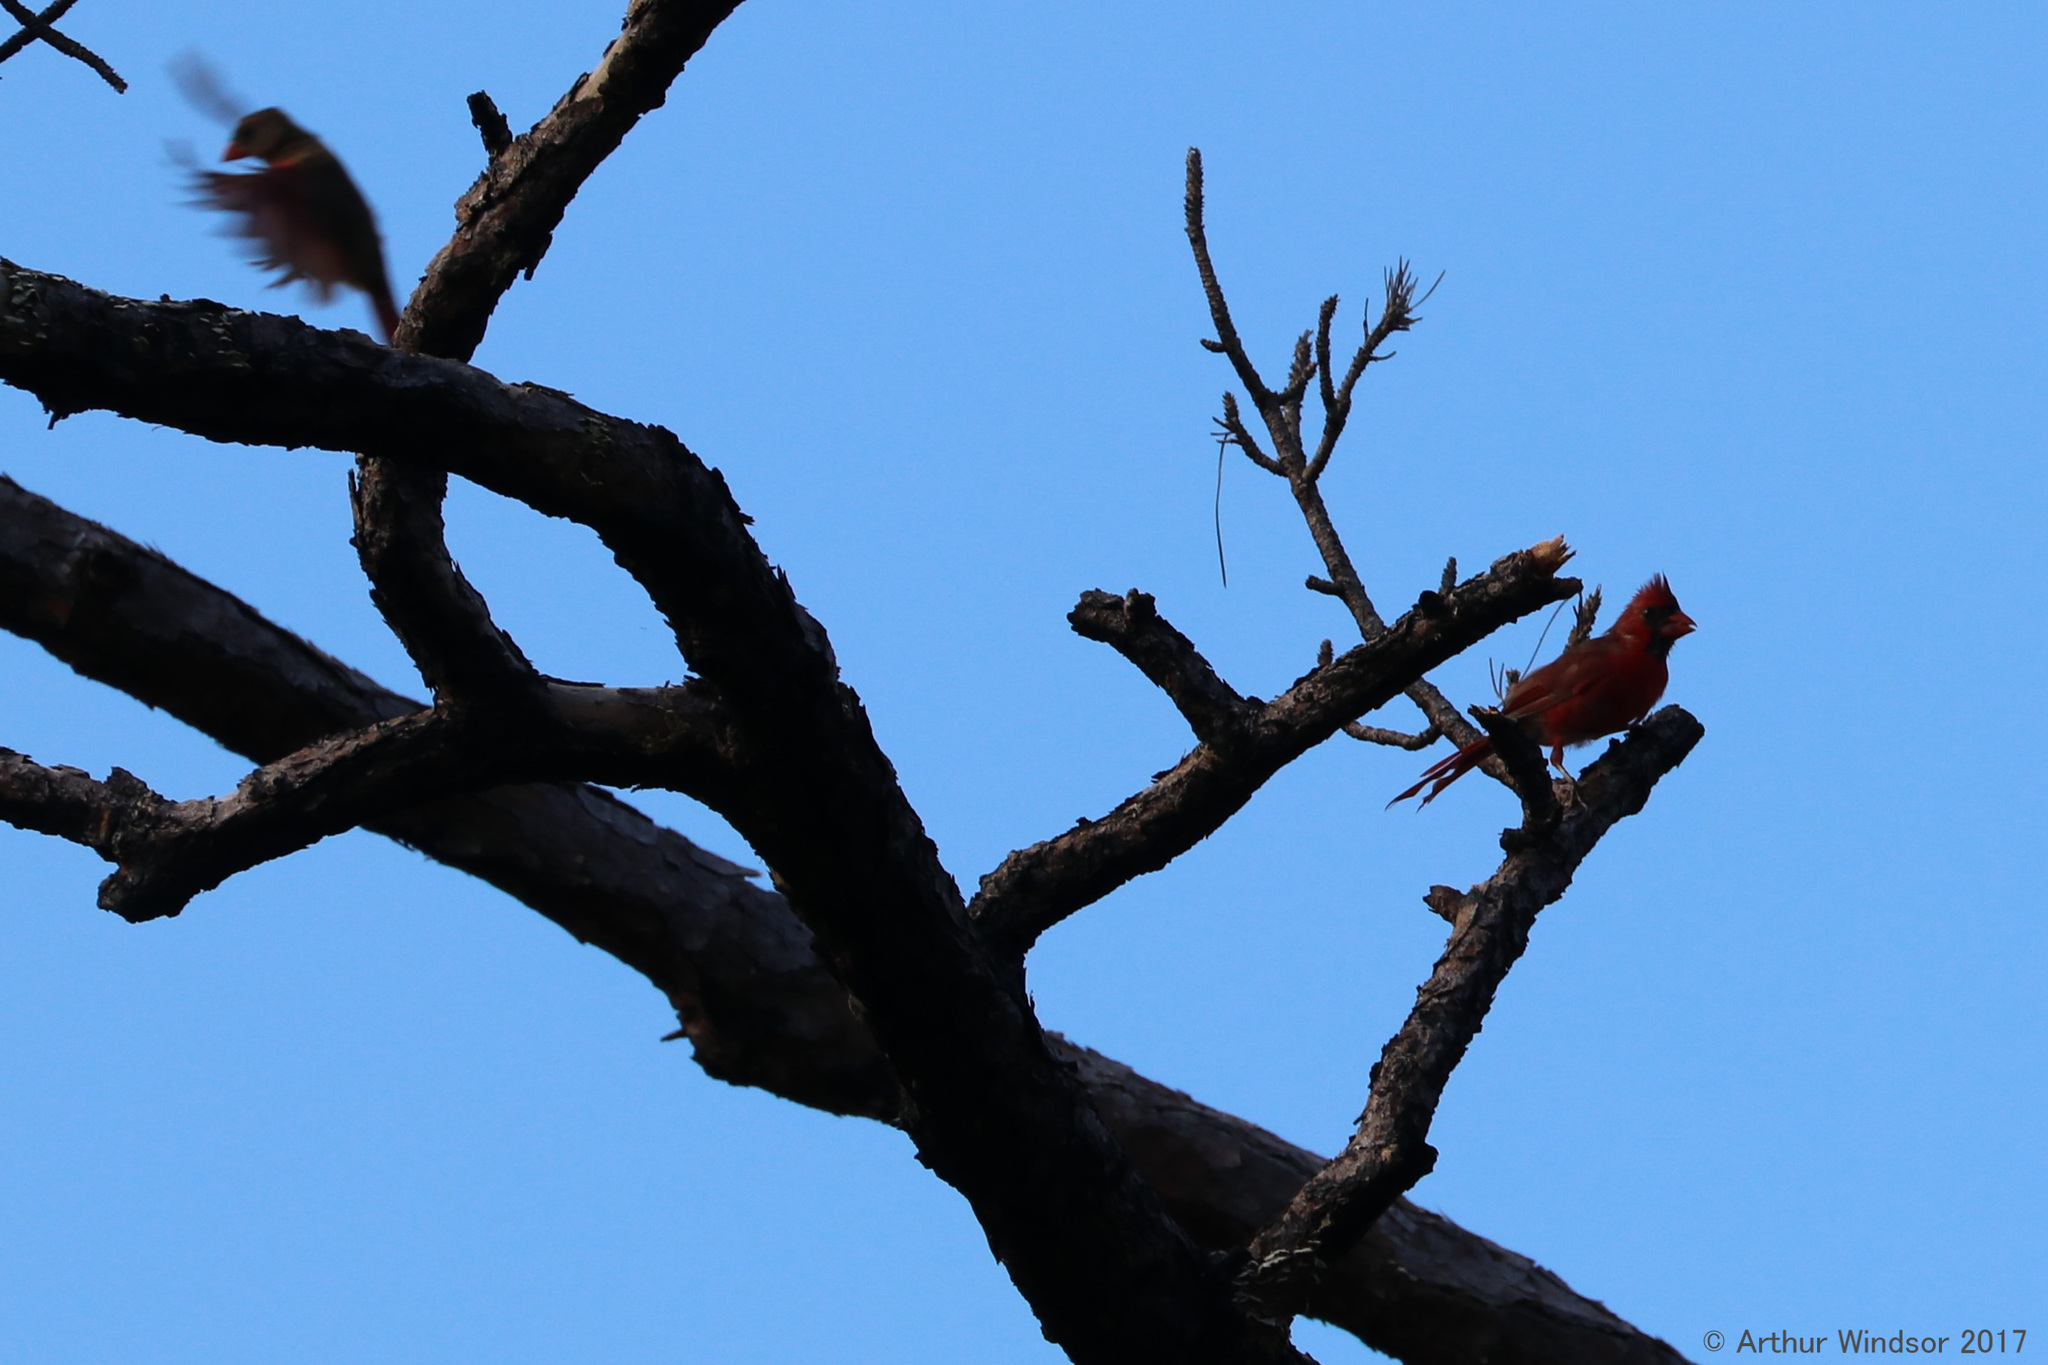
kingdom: Animalia
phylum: Chordata
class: Aves
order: Passeriformes
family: Cardinalidae
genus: Cardinalis
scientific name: Cardinalis cardinalis
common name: Northern cardinal
